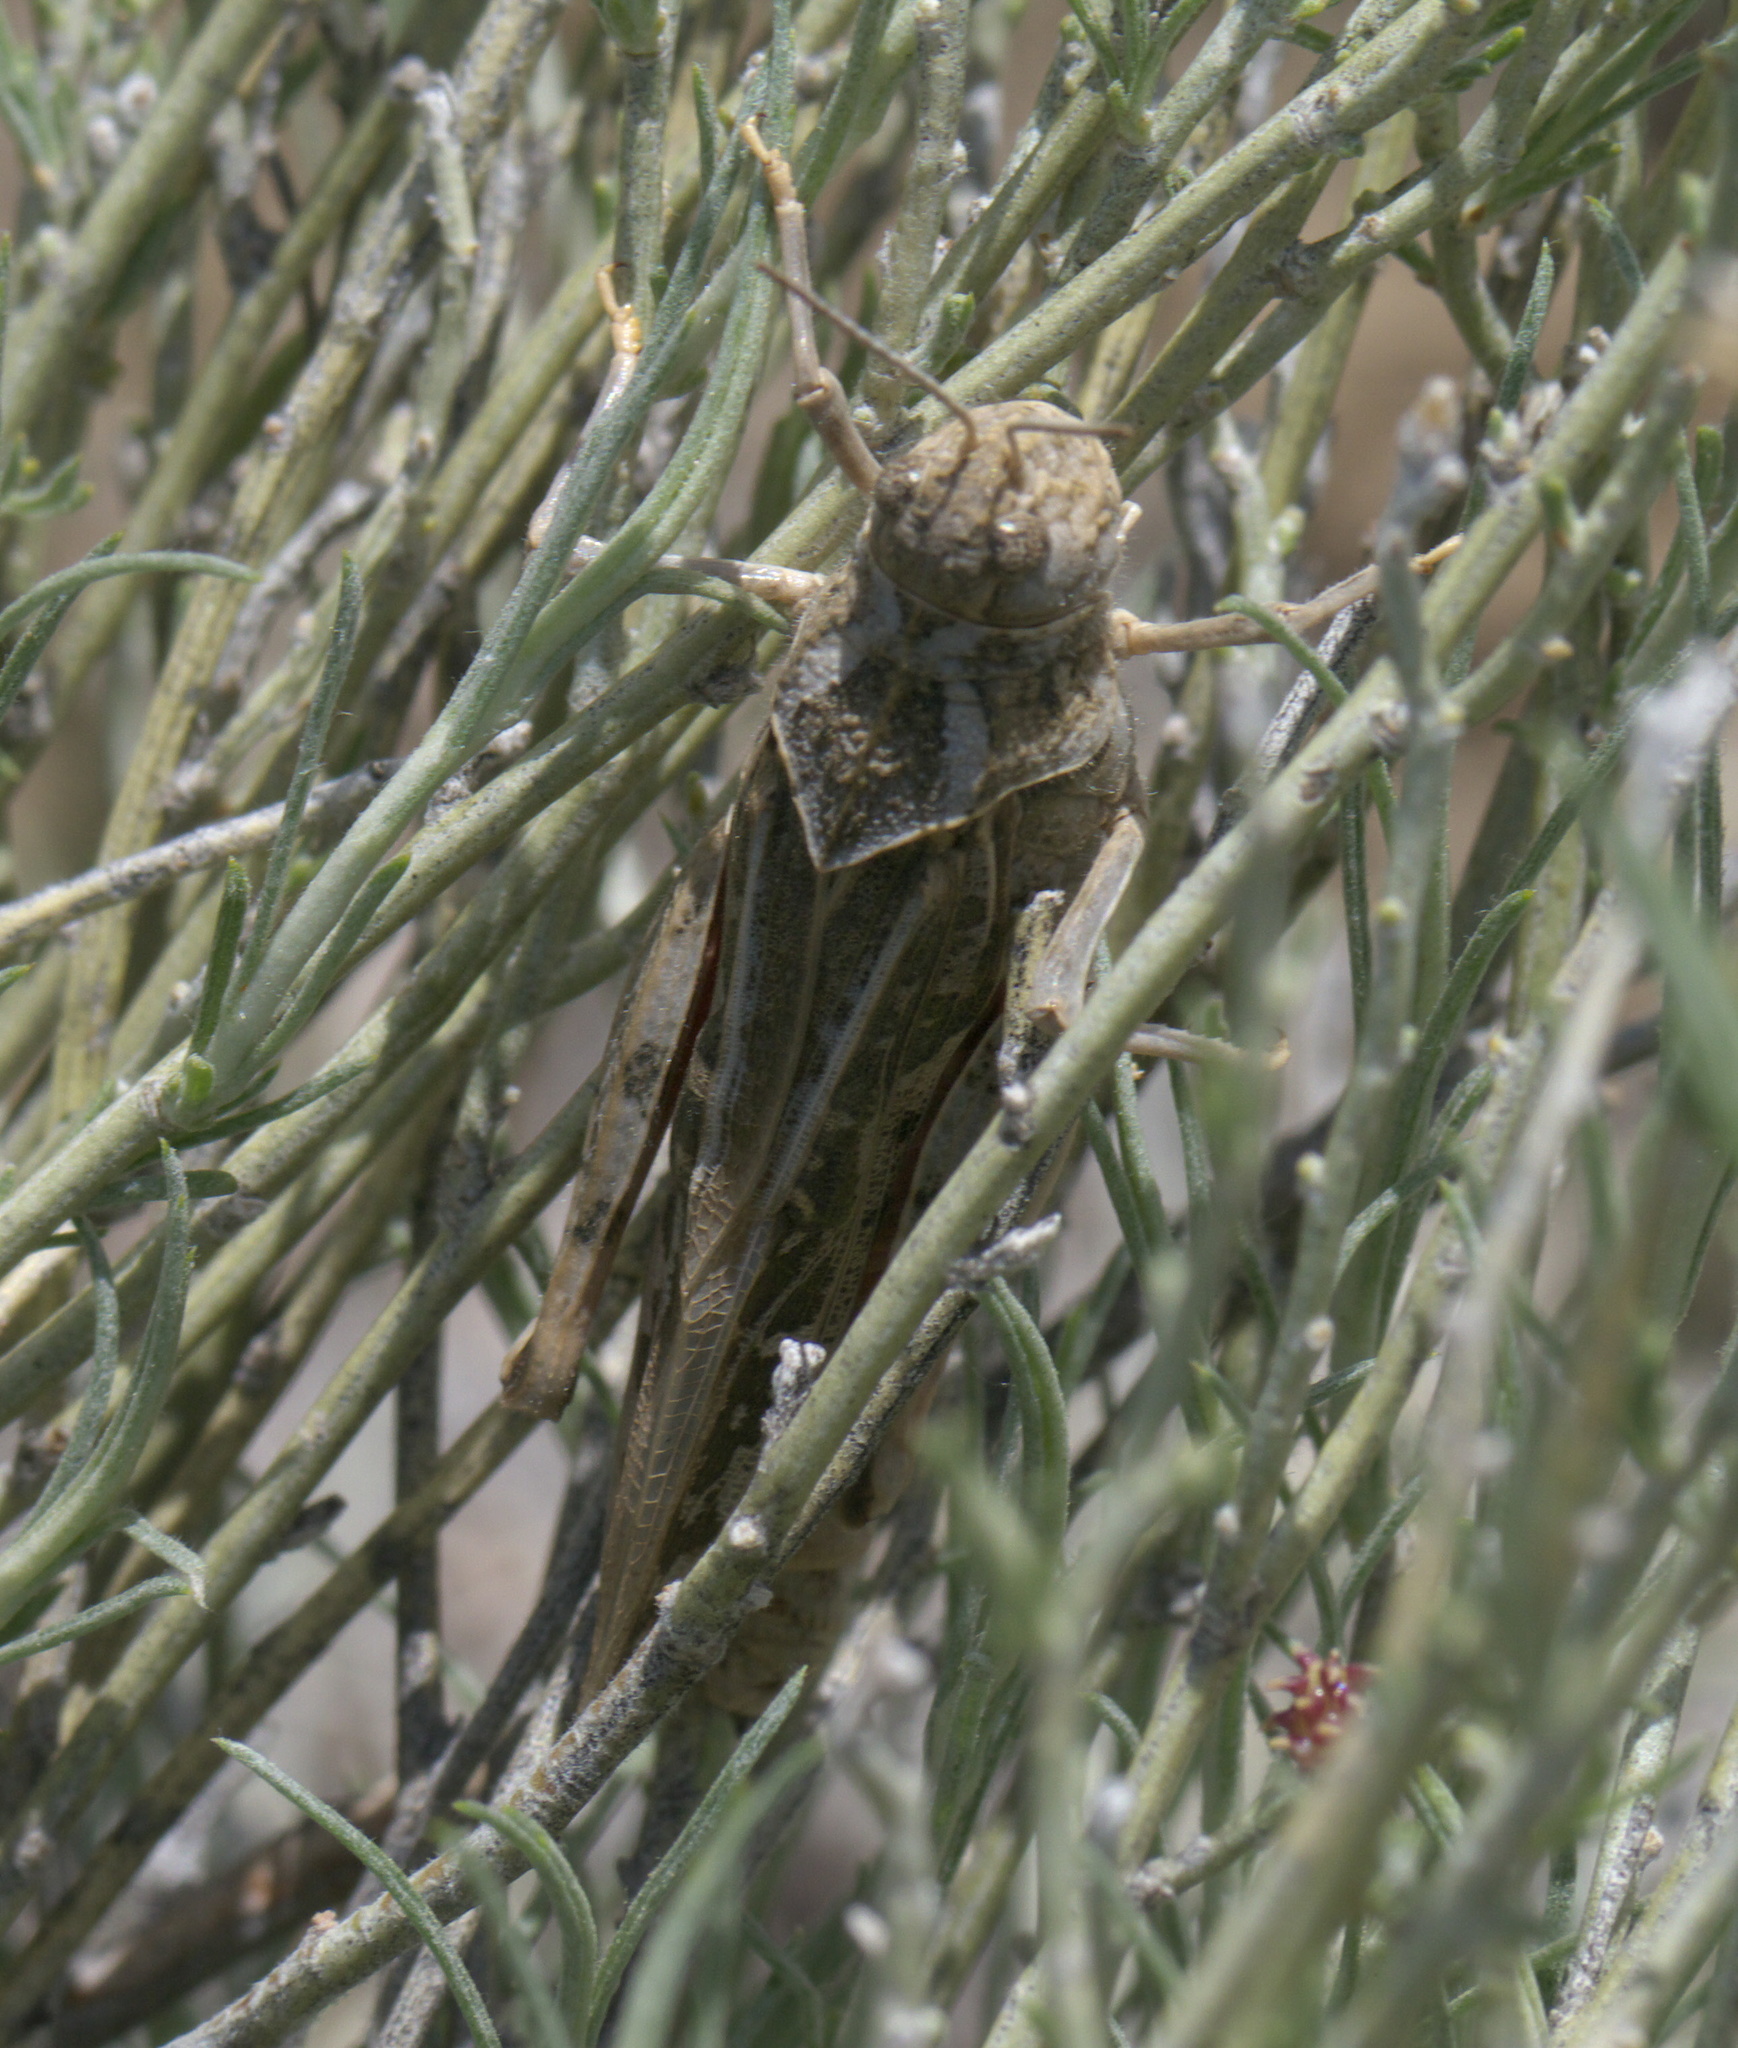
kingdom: Animalia
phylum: Arthropoda
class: Insecta
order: Orthoptera
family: Acrididae
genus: Xanthippus
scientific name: Xanthippus montanus
